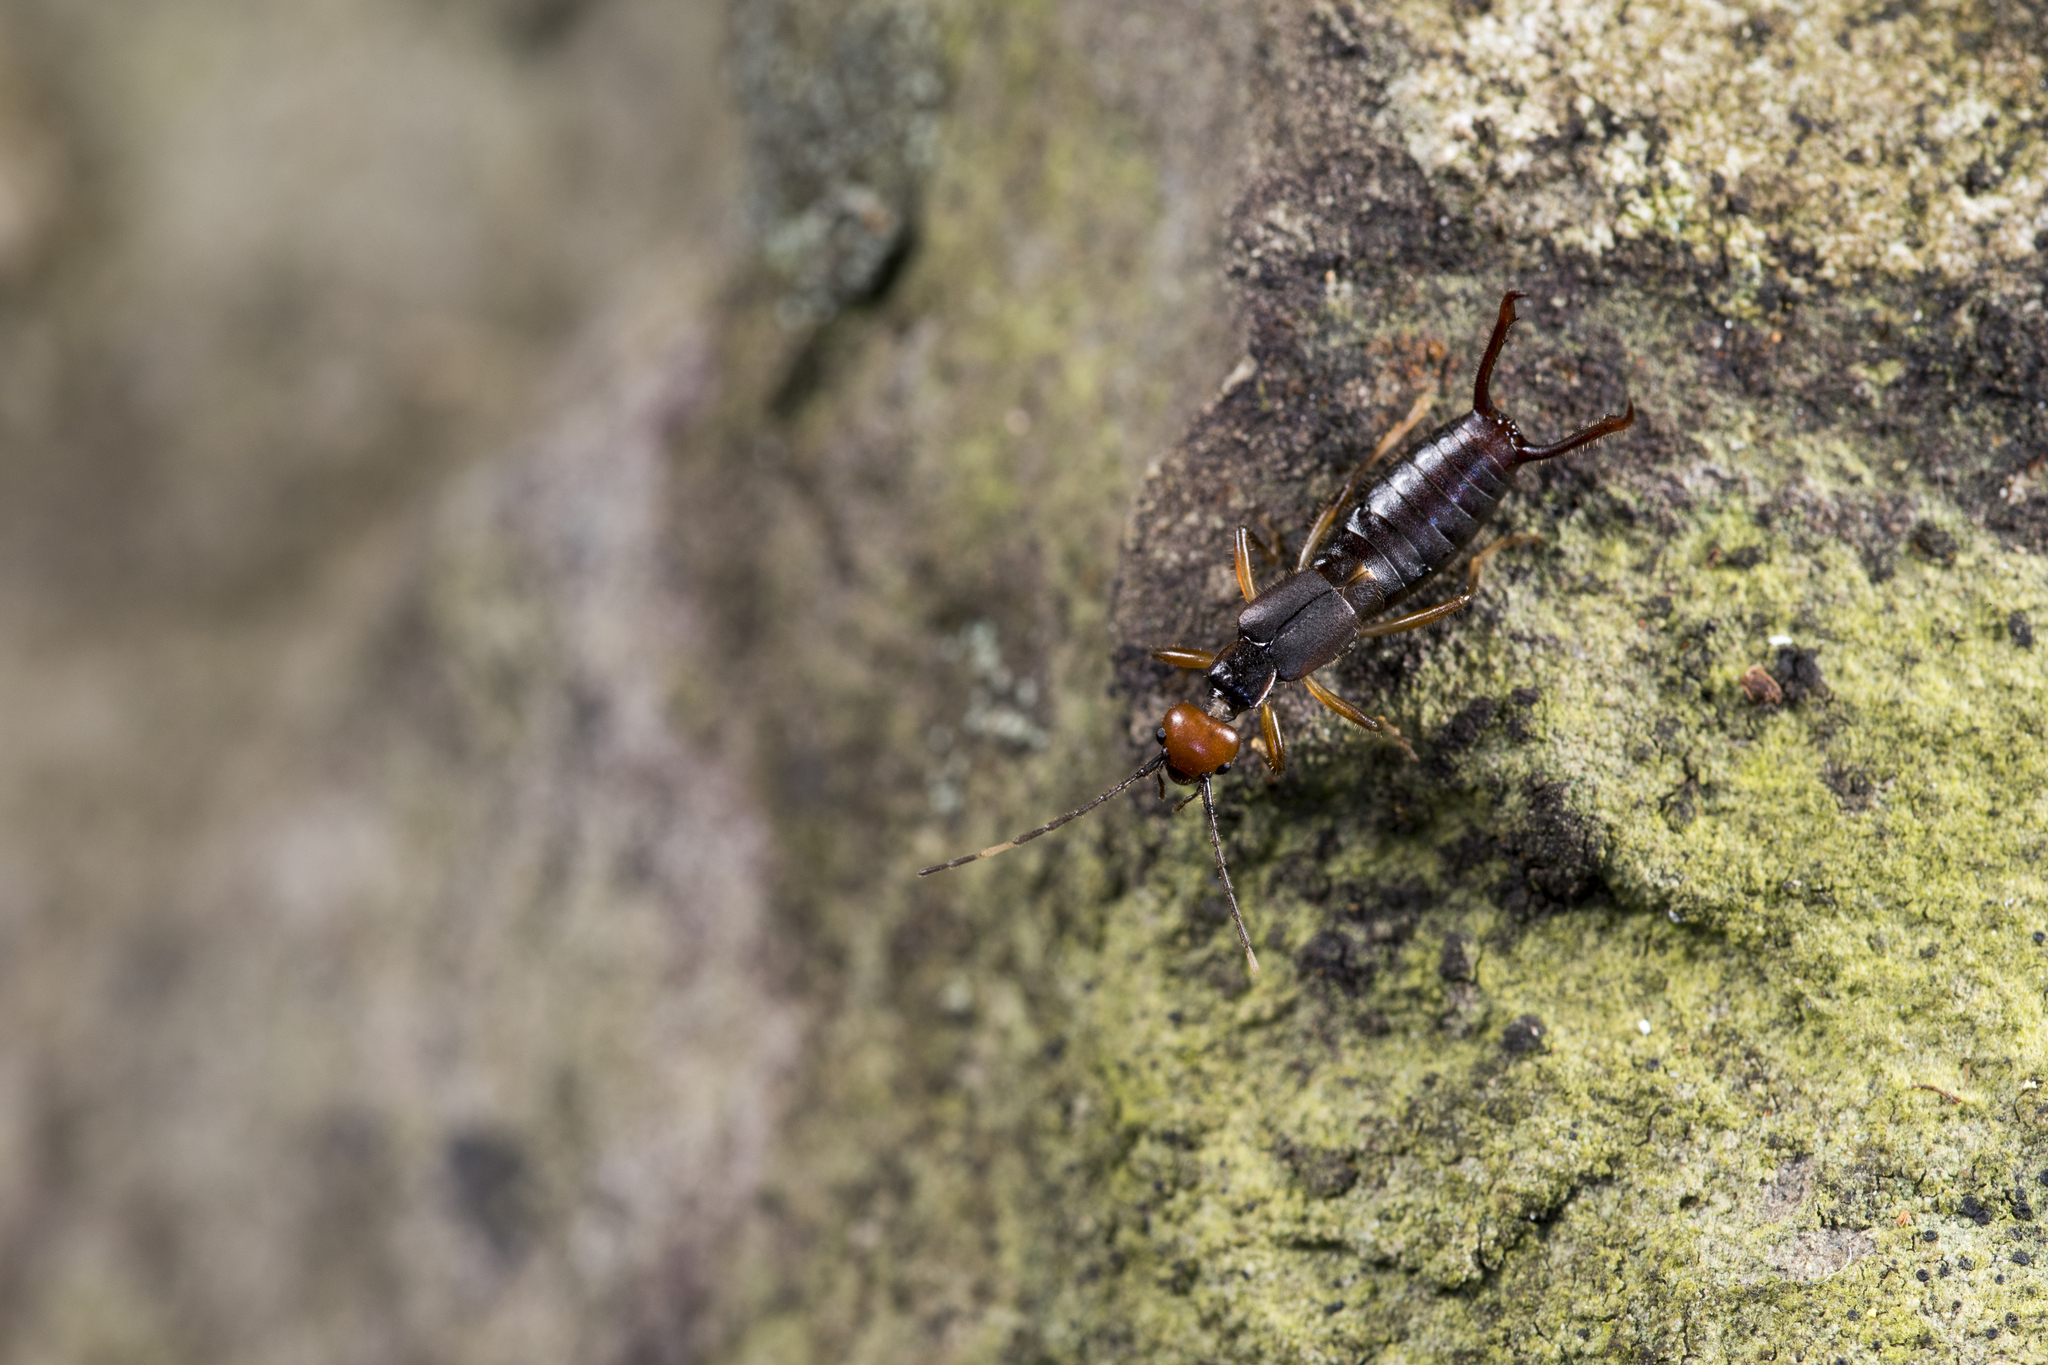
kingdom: Animalia
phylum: Arthropoda
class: Insecta
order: Dermaptera
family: Forficulidae
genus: Anechura
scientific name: Anechura crinitata
